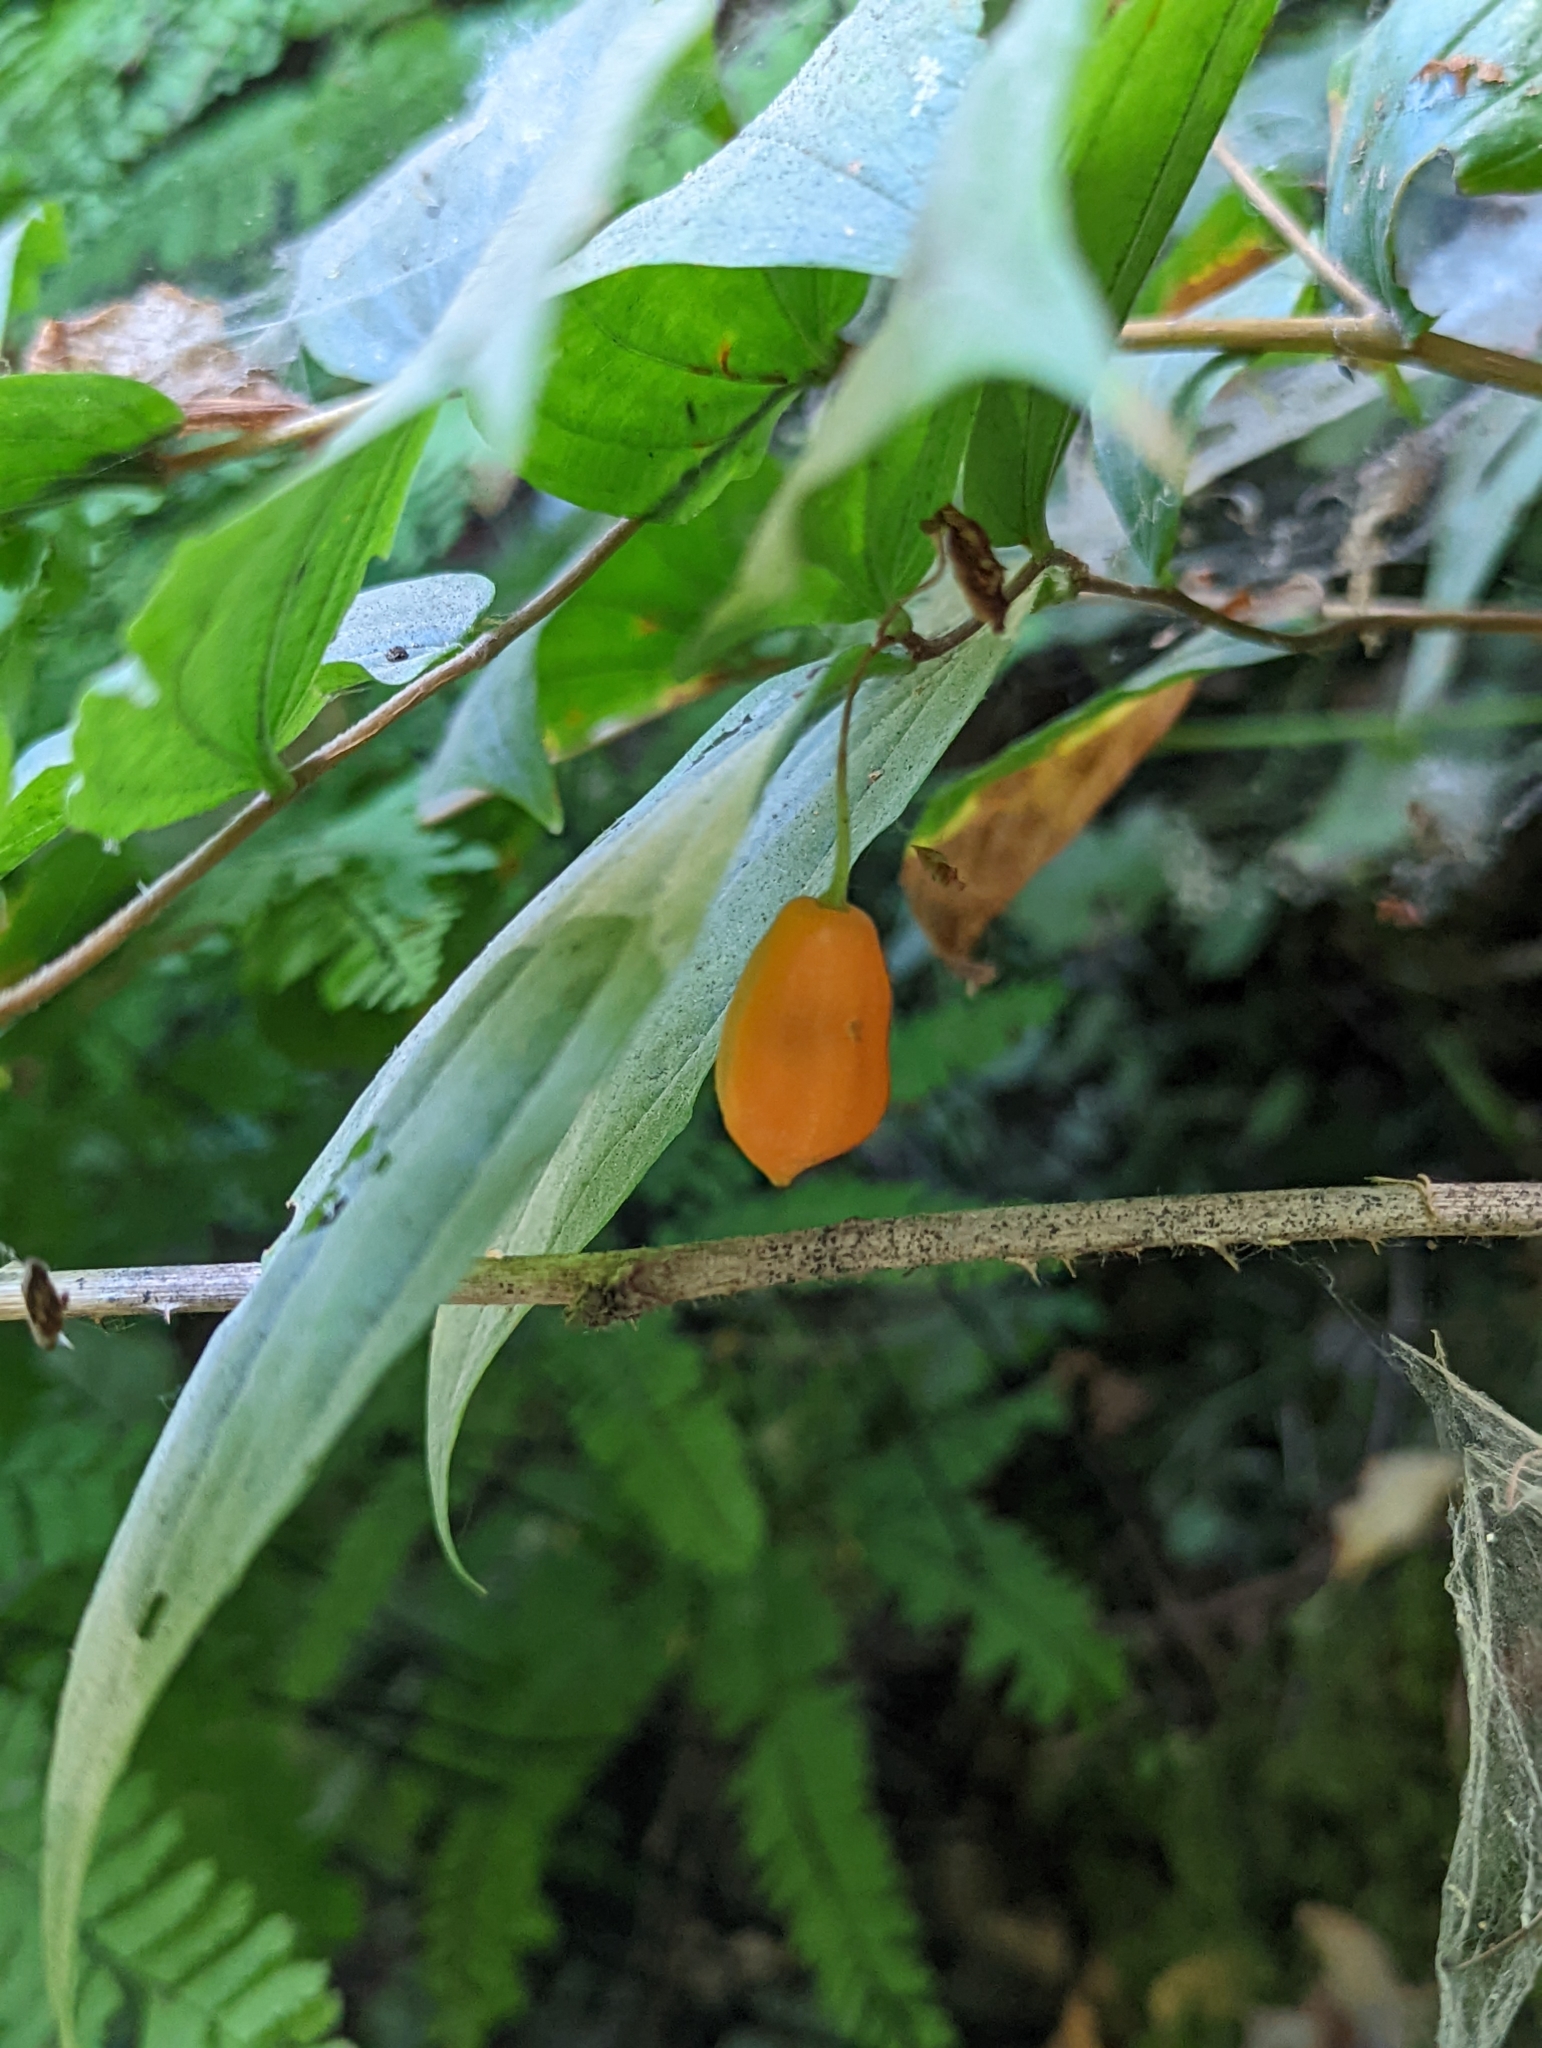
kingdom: Plantae
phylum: Tracheophyta
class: Liliopsida
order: Liliales
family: Liliaceae
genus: Prosartes
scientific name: Prosartes smithii
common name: Fairy-lantern
